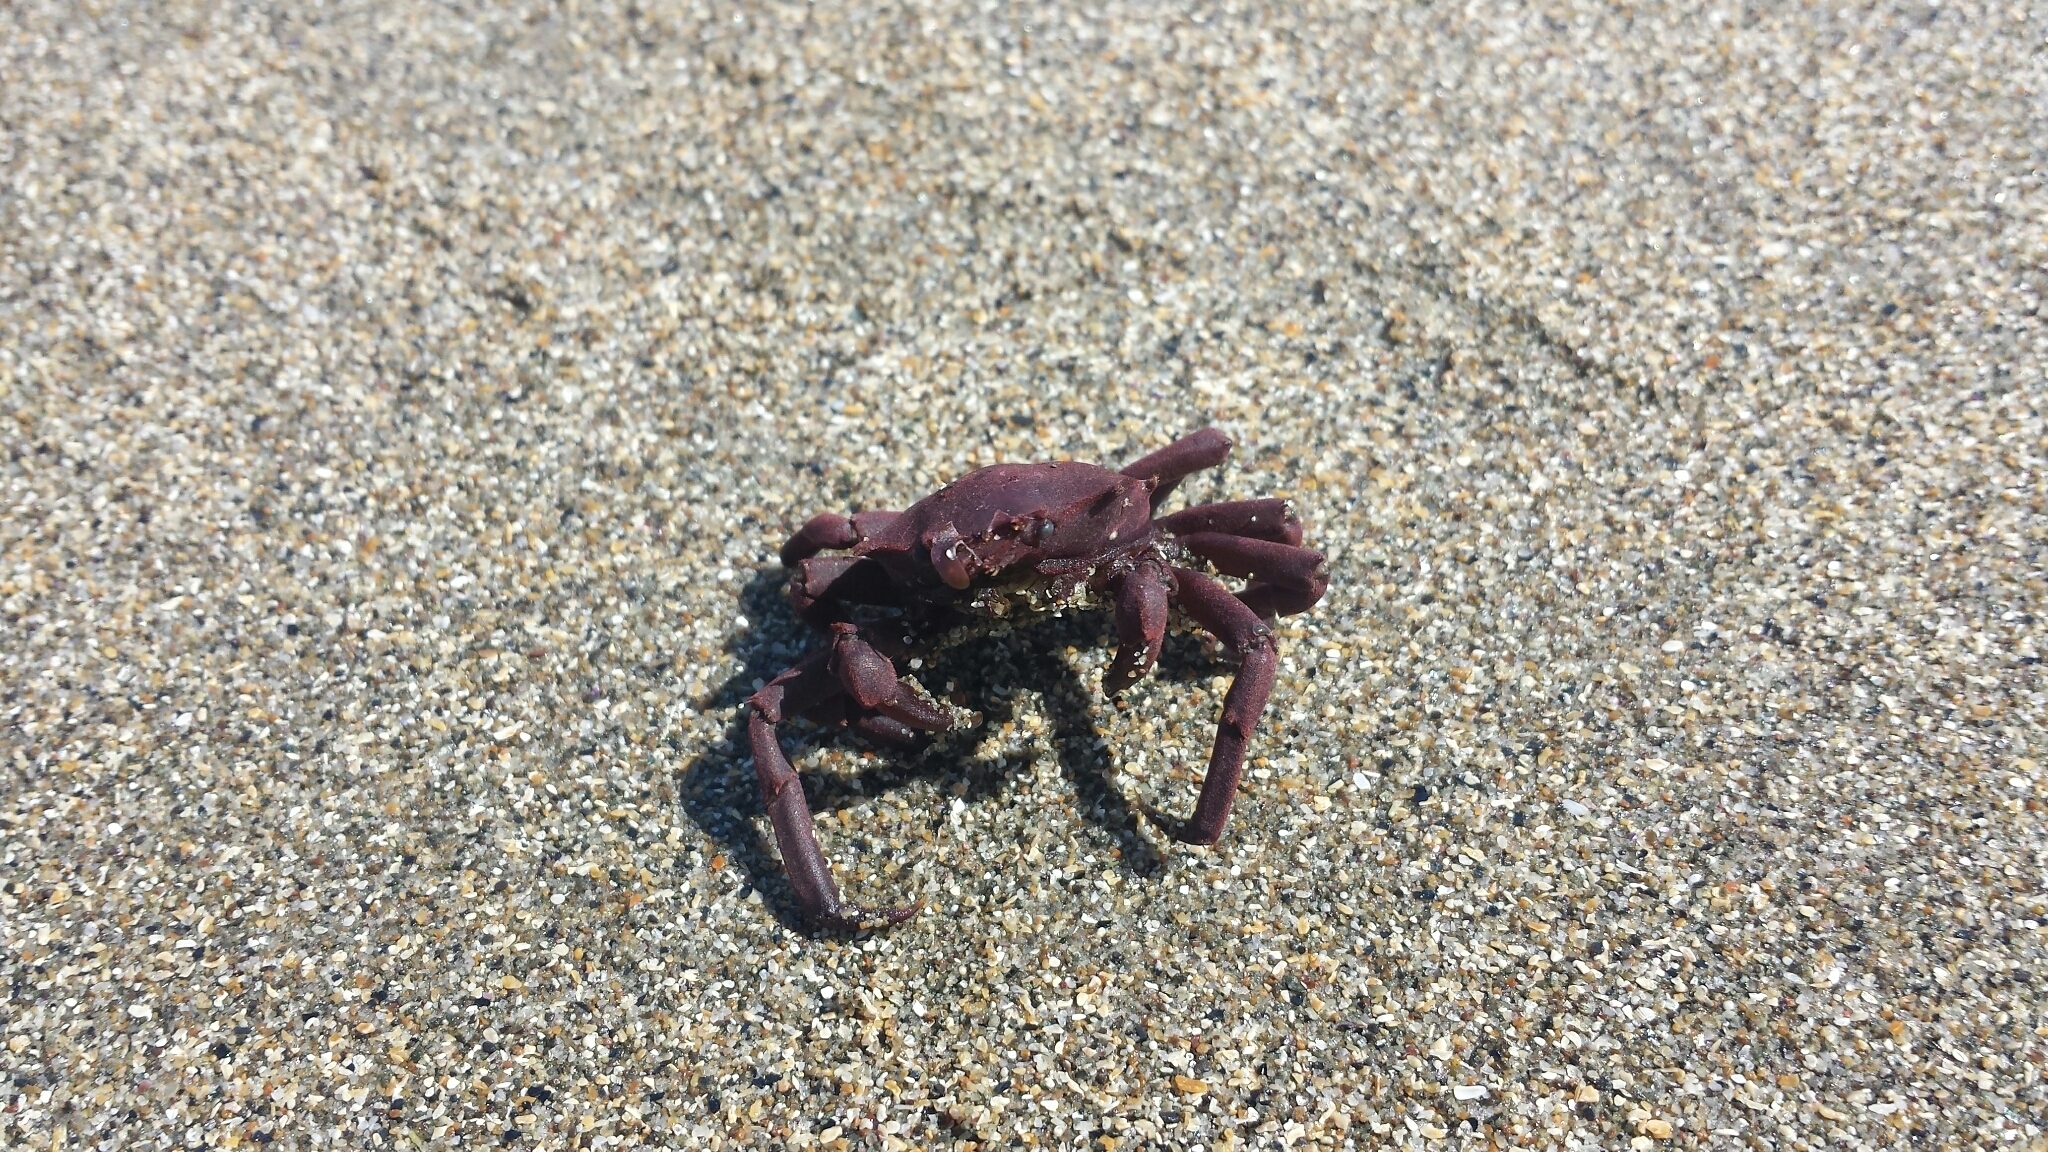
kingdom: Animalia
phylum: Arthropoda
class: Malacostraca
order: Decapoda
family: Epialtidae
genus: Pugettia
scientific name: Pugettia producta
